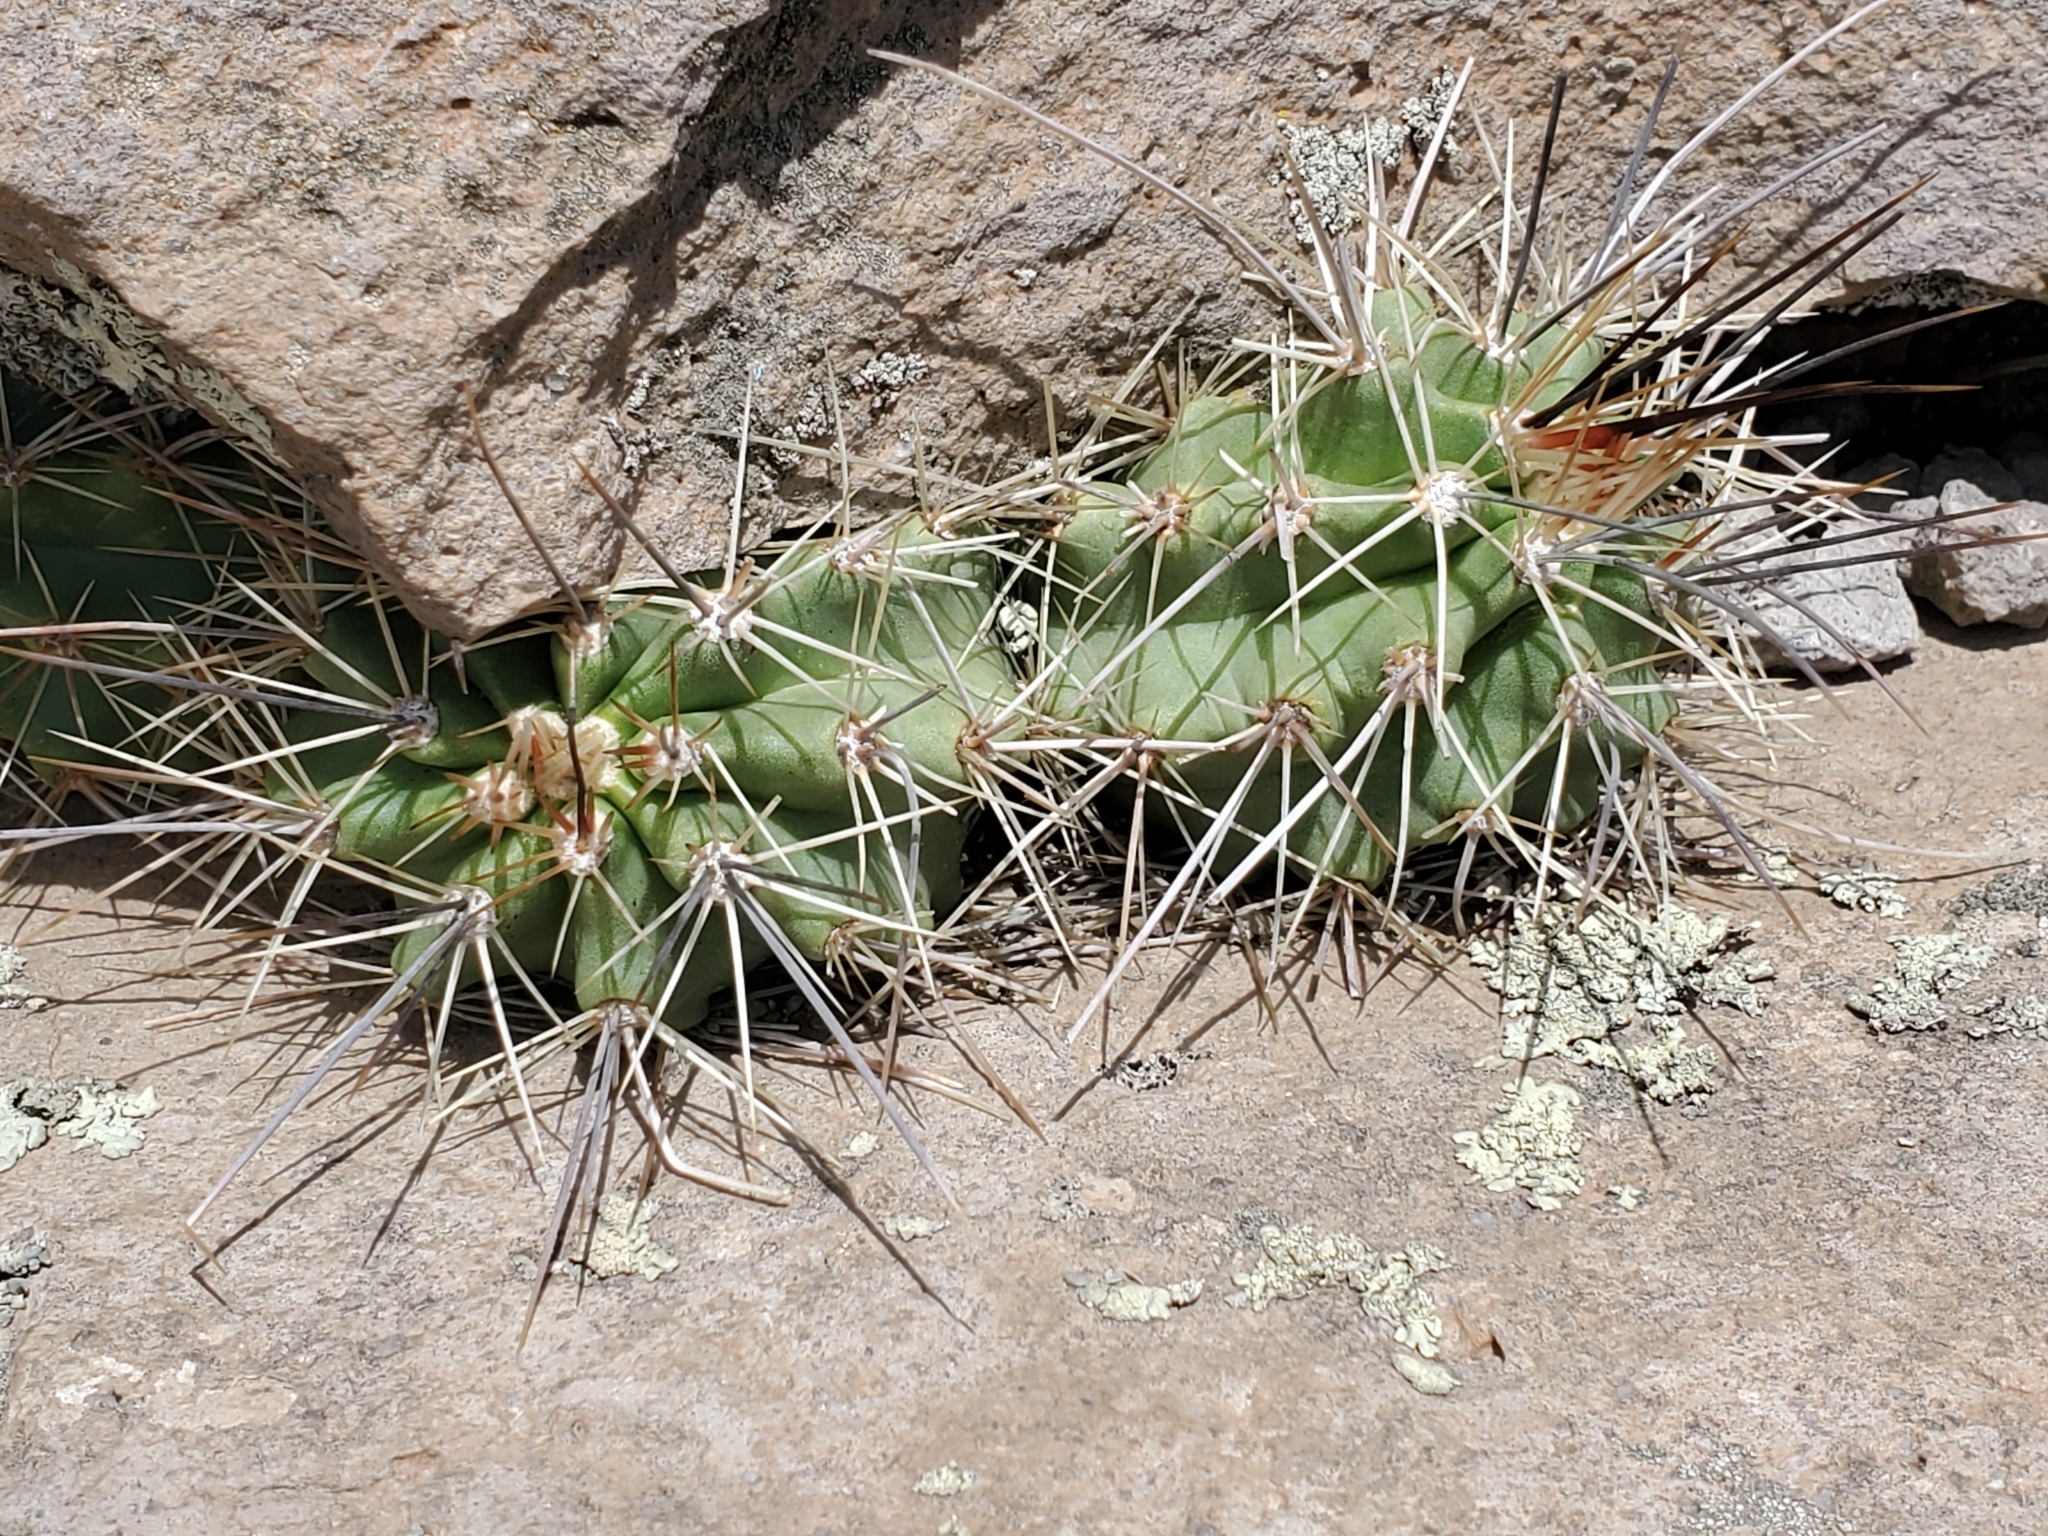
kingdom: Plantae
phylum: Tracheophyta
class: Magnoliopsida
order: Caryophyllales
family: Cactaceae
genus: Echinocereus
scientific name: Echinocereus coccineus
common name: Scarlet hedgehog cactus
